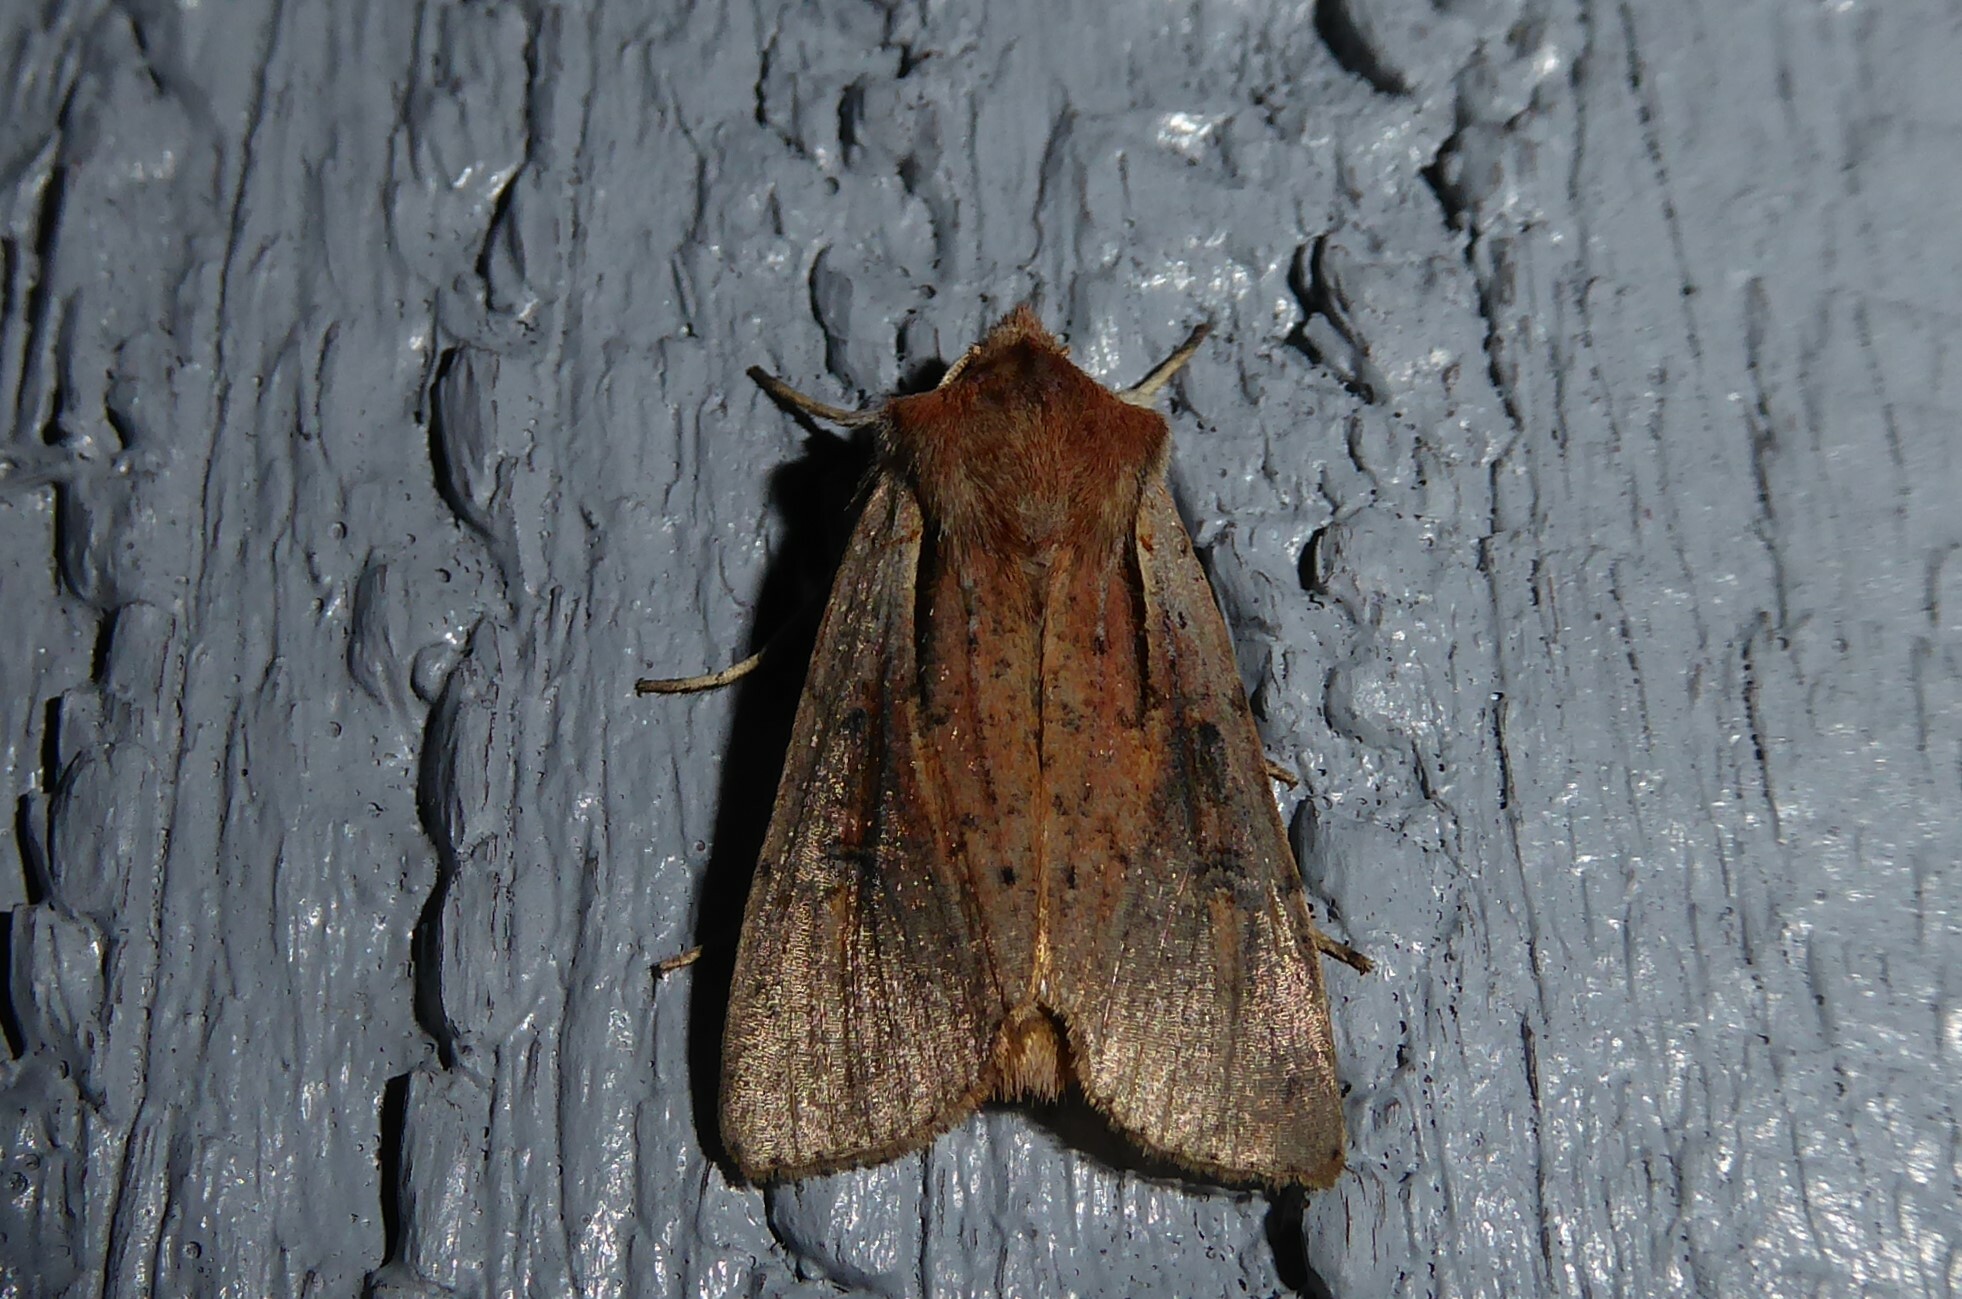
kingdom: Animalia
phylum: Arthropoda
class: Insecta
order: Lepidoptera
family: Noctuidae
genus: Ichneutica
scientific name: Ichneutica atristriga
